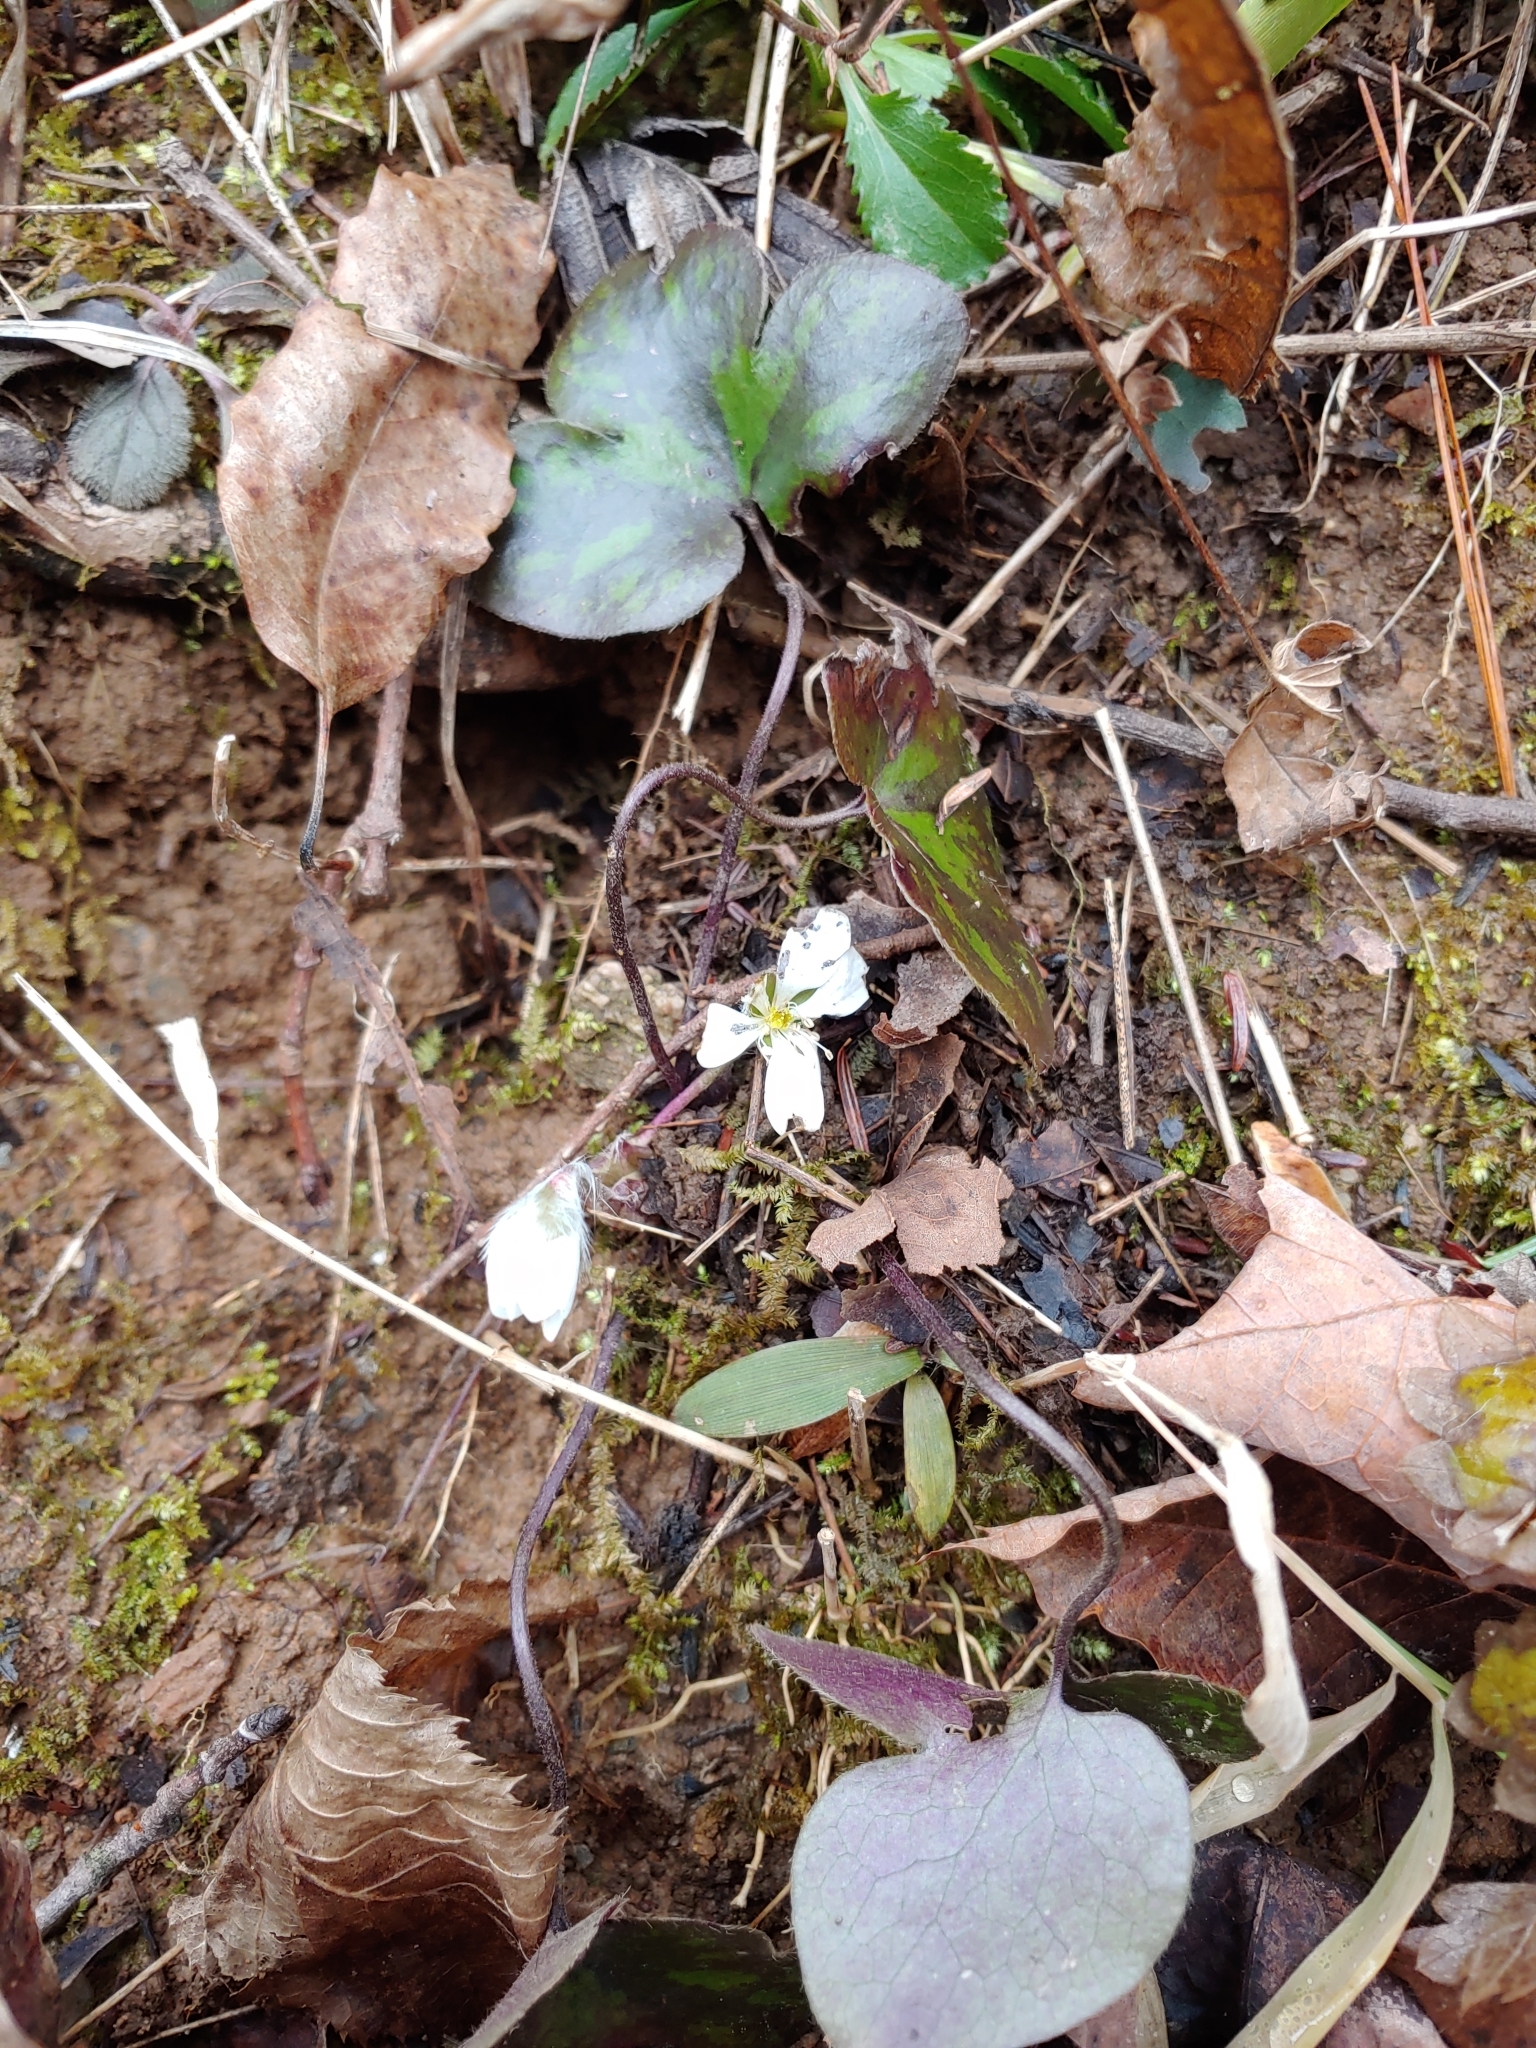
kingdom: Plantae
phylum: Tracheophyta
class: Magnoliopsida
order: Ranunculales
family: Ranunculaceae
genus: Hepatica
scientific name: Hepatica americana
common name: American hepatica
